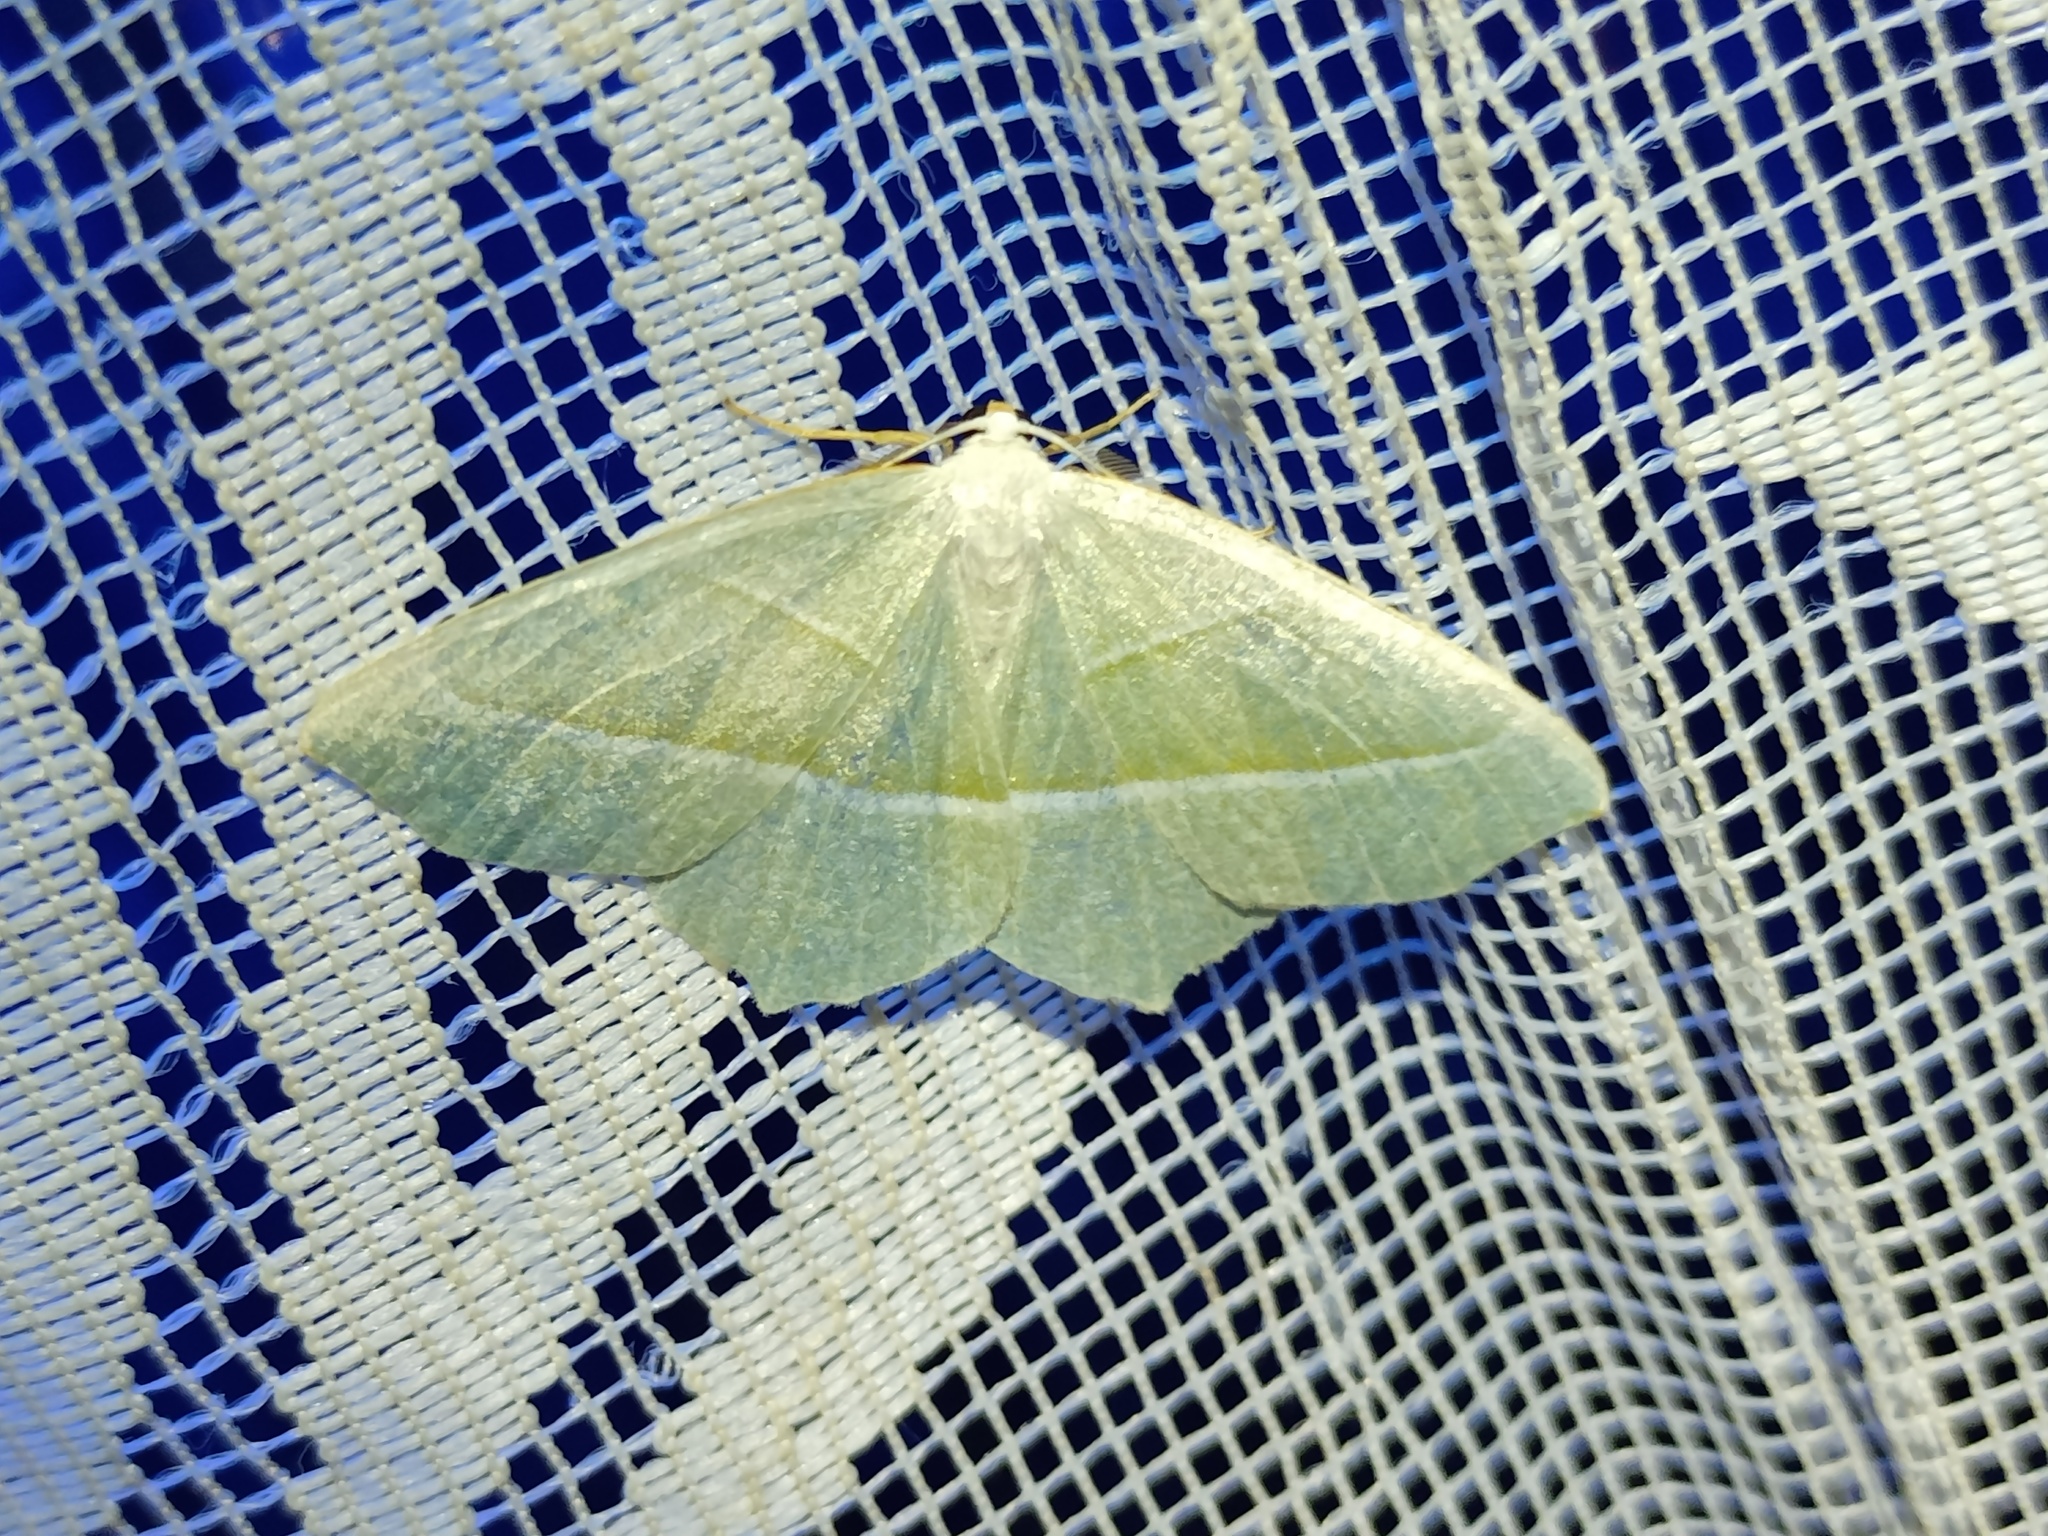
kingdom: Animalia
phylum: Arthropoda
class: Insecta
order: Lepidoptera
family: Geometridae
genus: Campaea
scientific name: Campaea margaritaria
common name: Light emerald
